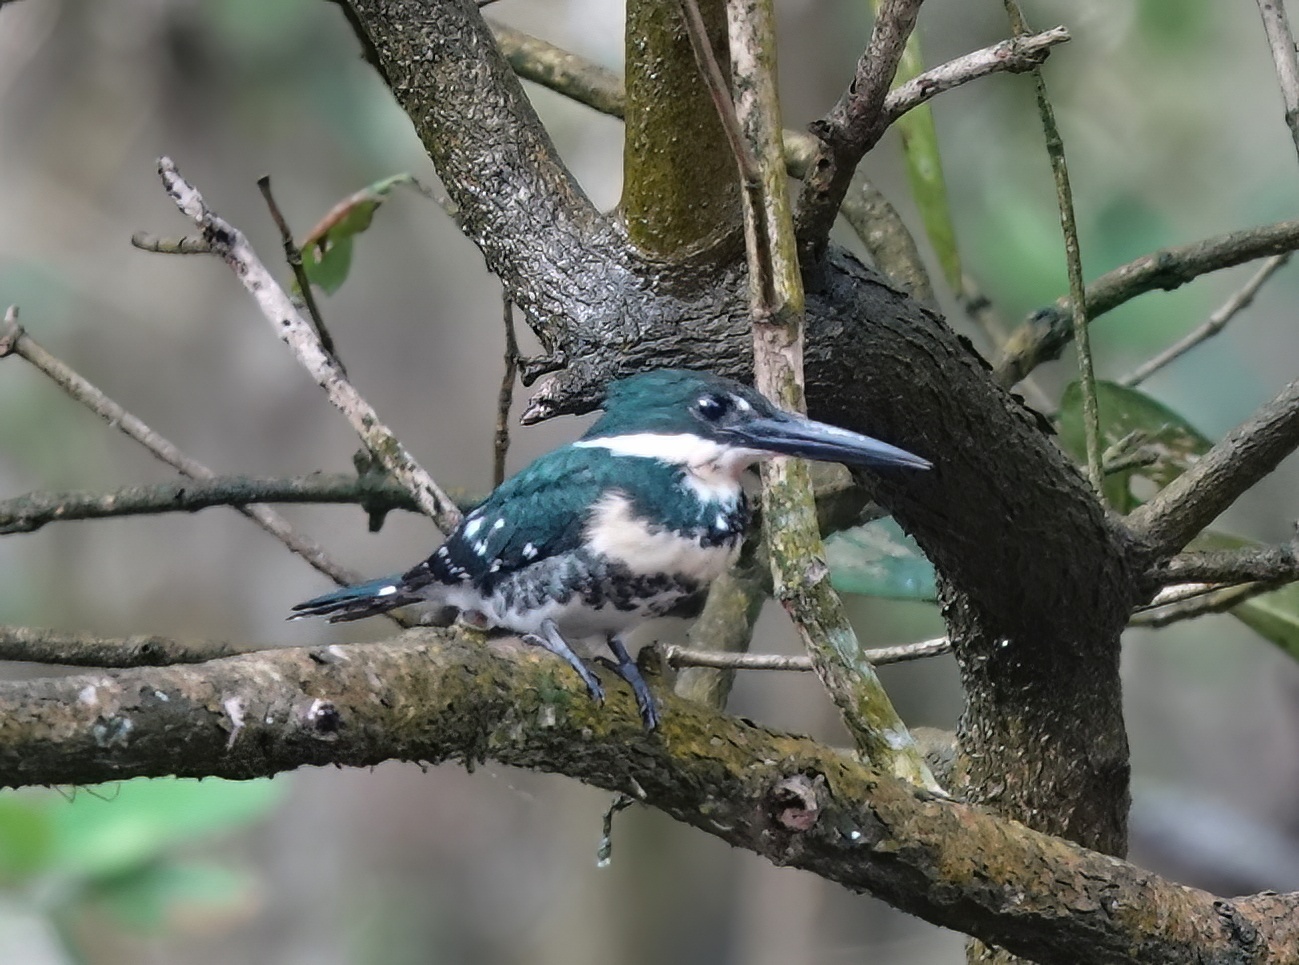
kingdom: Animalia
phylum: Chordata
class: Aves
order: Coraciiformes
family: Alcedinidae
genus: Chloroceryle
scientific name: Chloroceryle americana
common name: Green kingfisher
